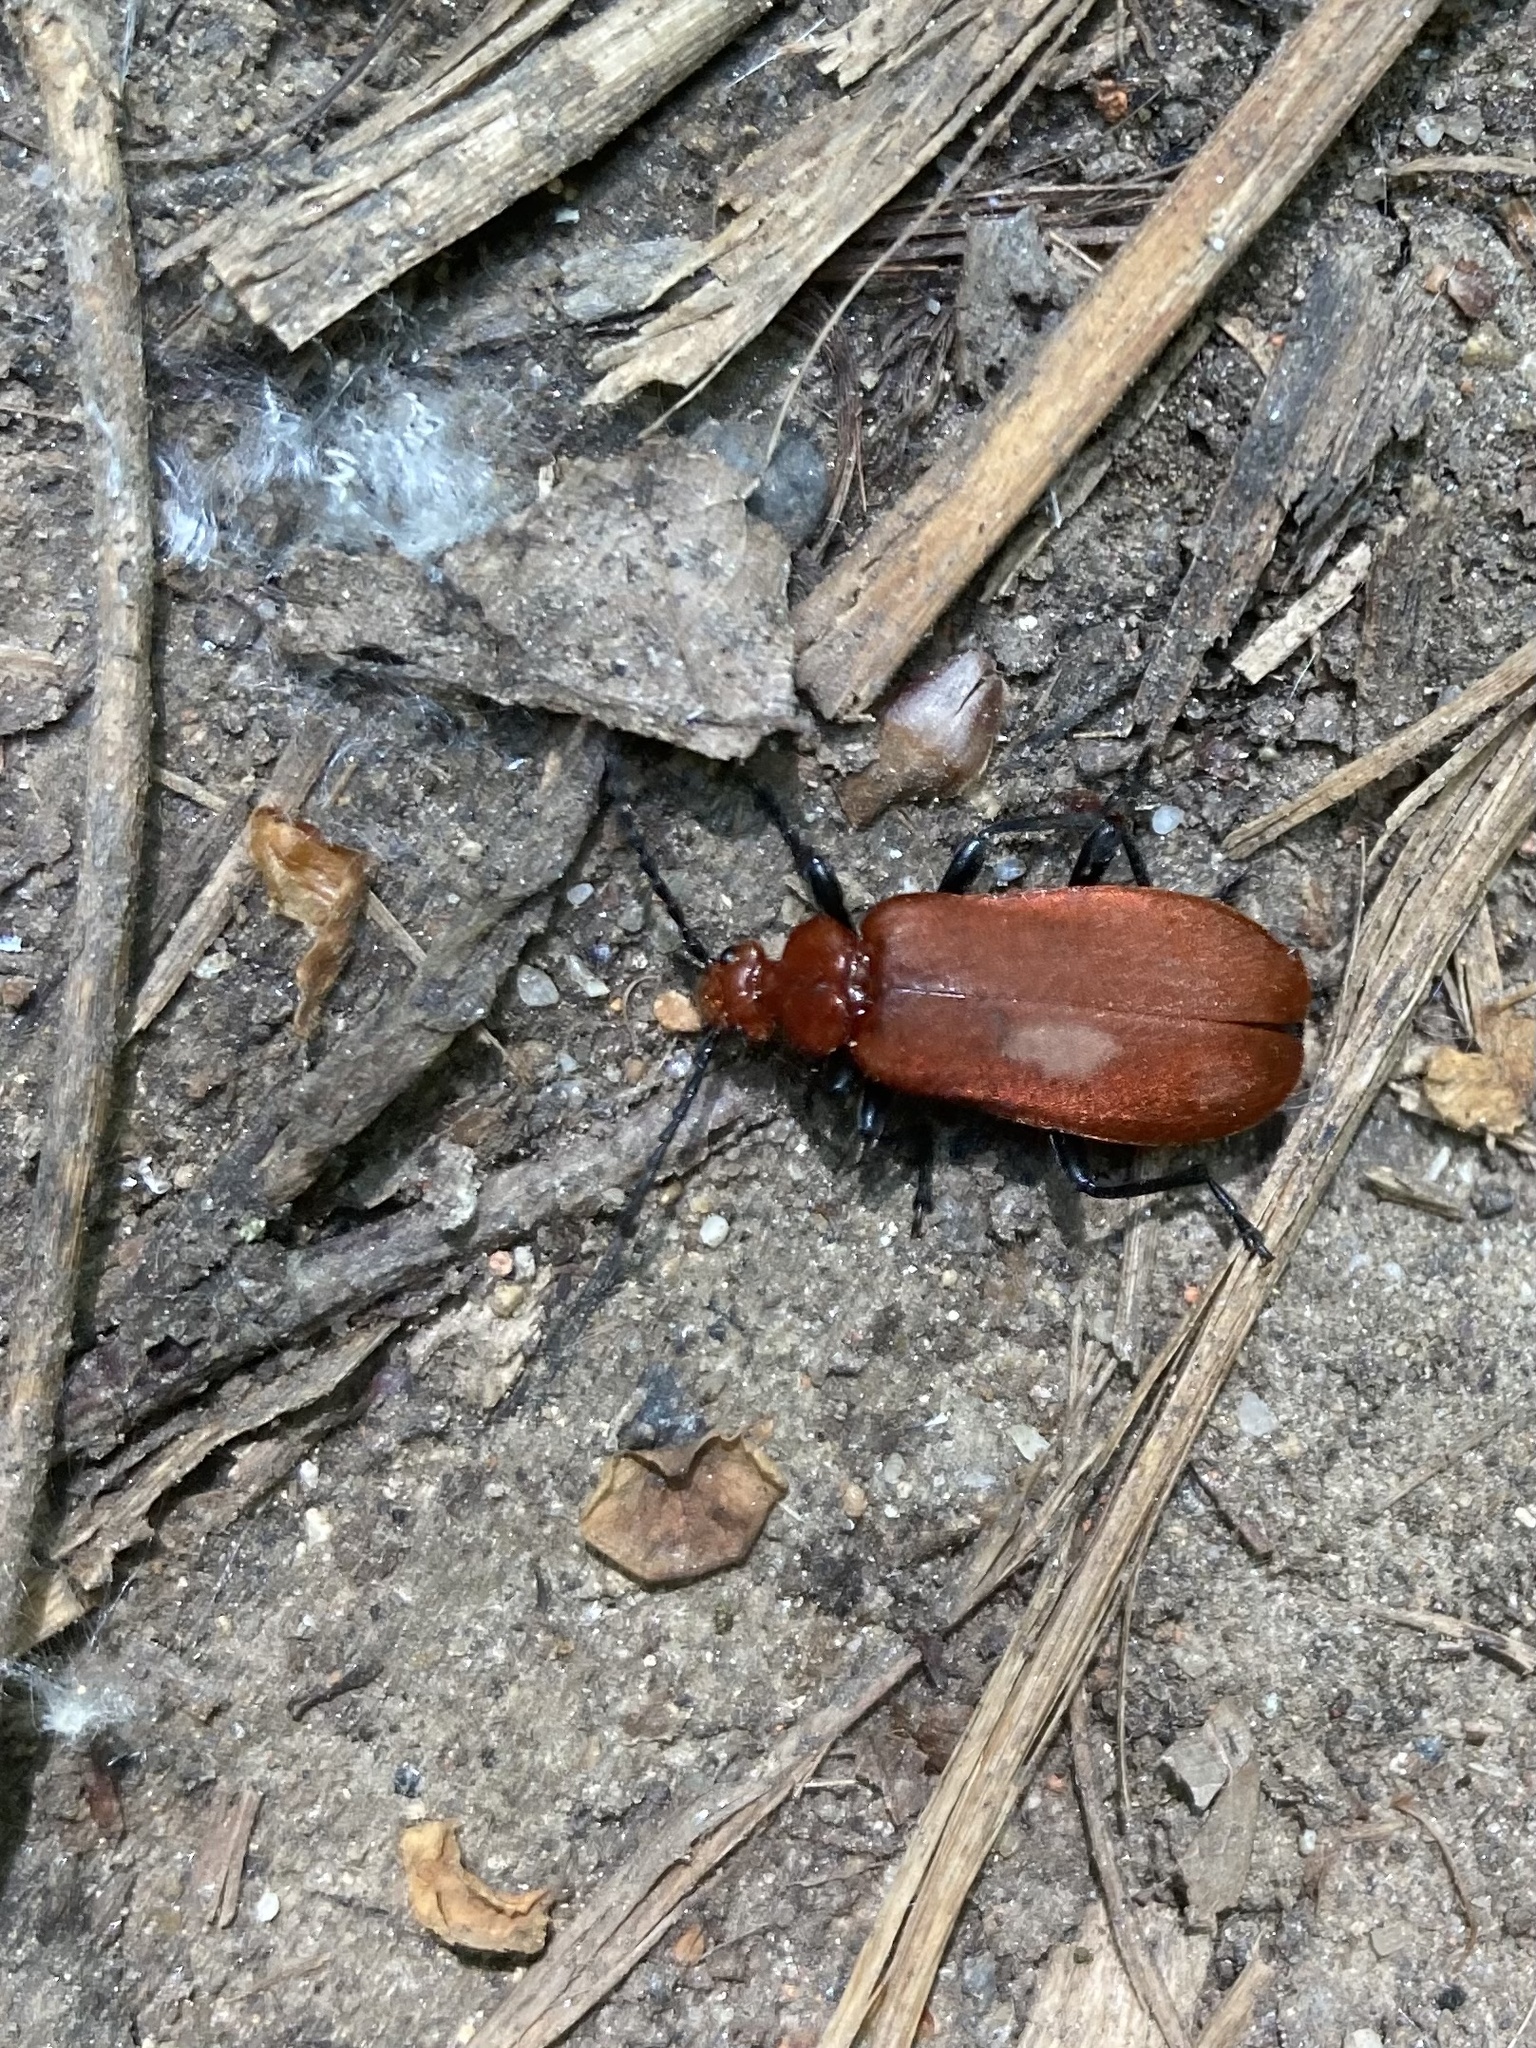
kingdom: Animalia
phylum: Arthropoda
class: Insecta
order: Coleoptera
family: Pyrochroidae
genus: Pyrochroa
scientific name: Pyrochroa serraticornis
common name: Red-headed cardinal beetle
